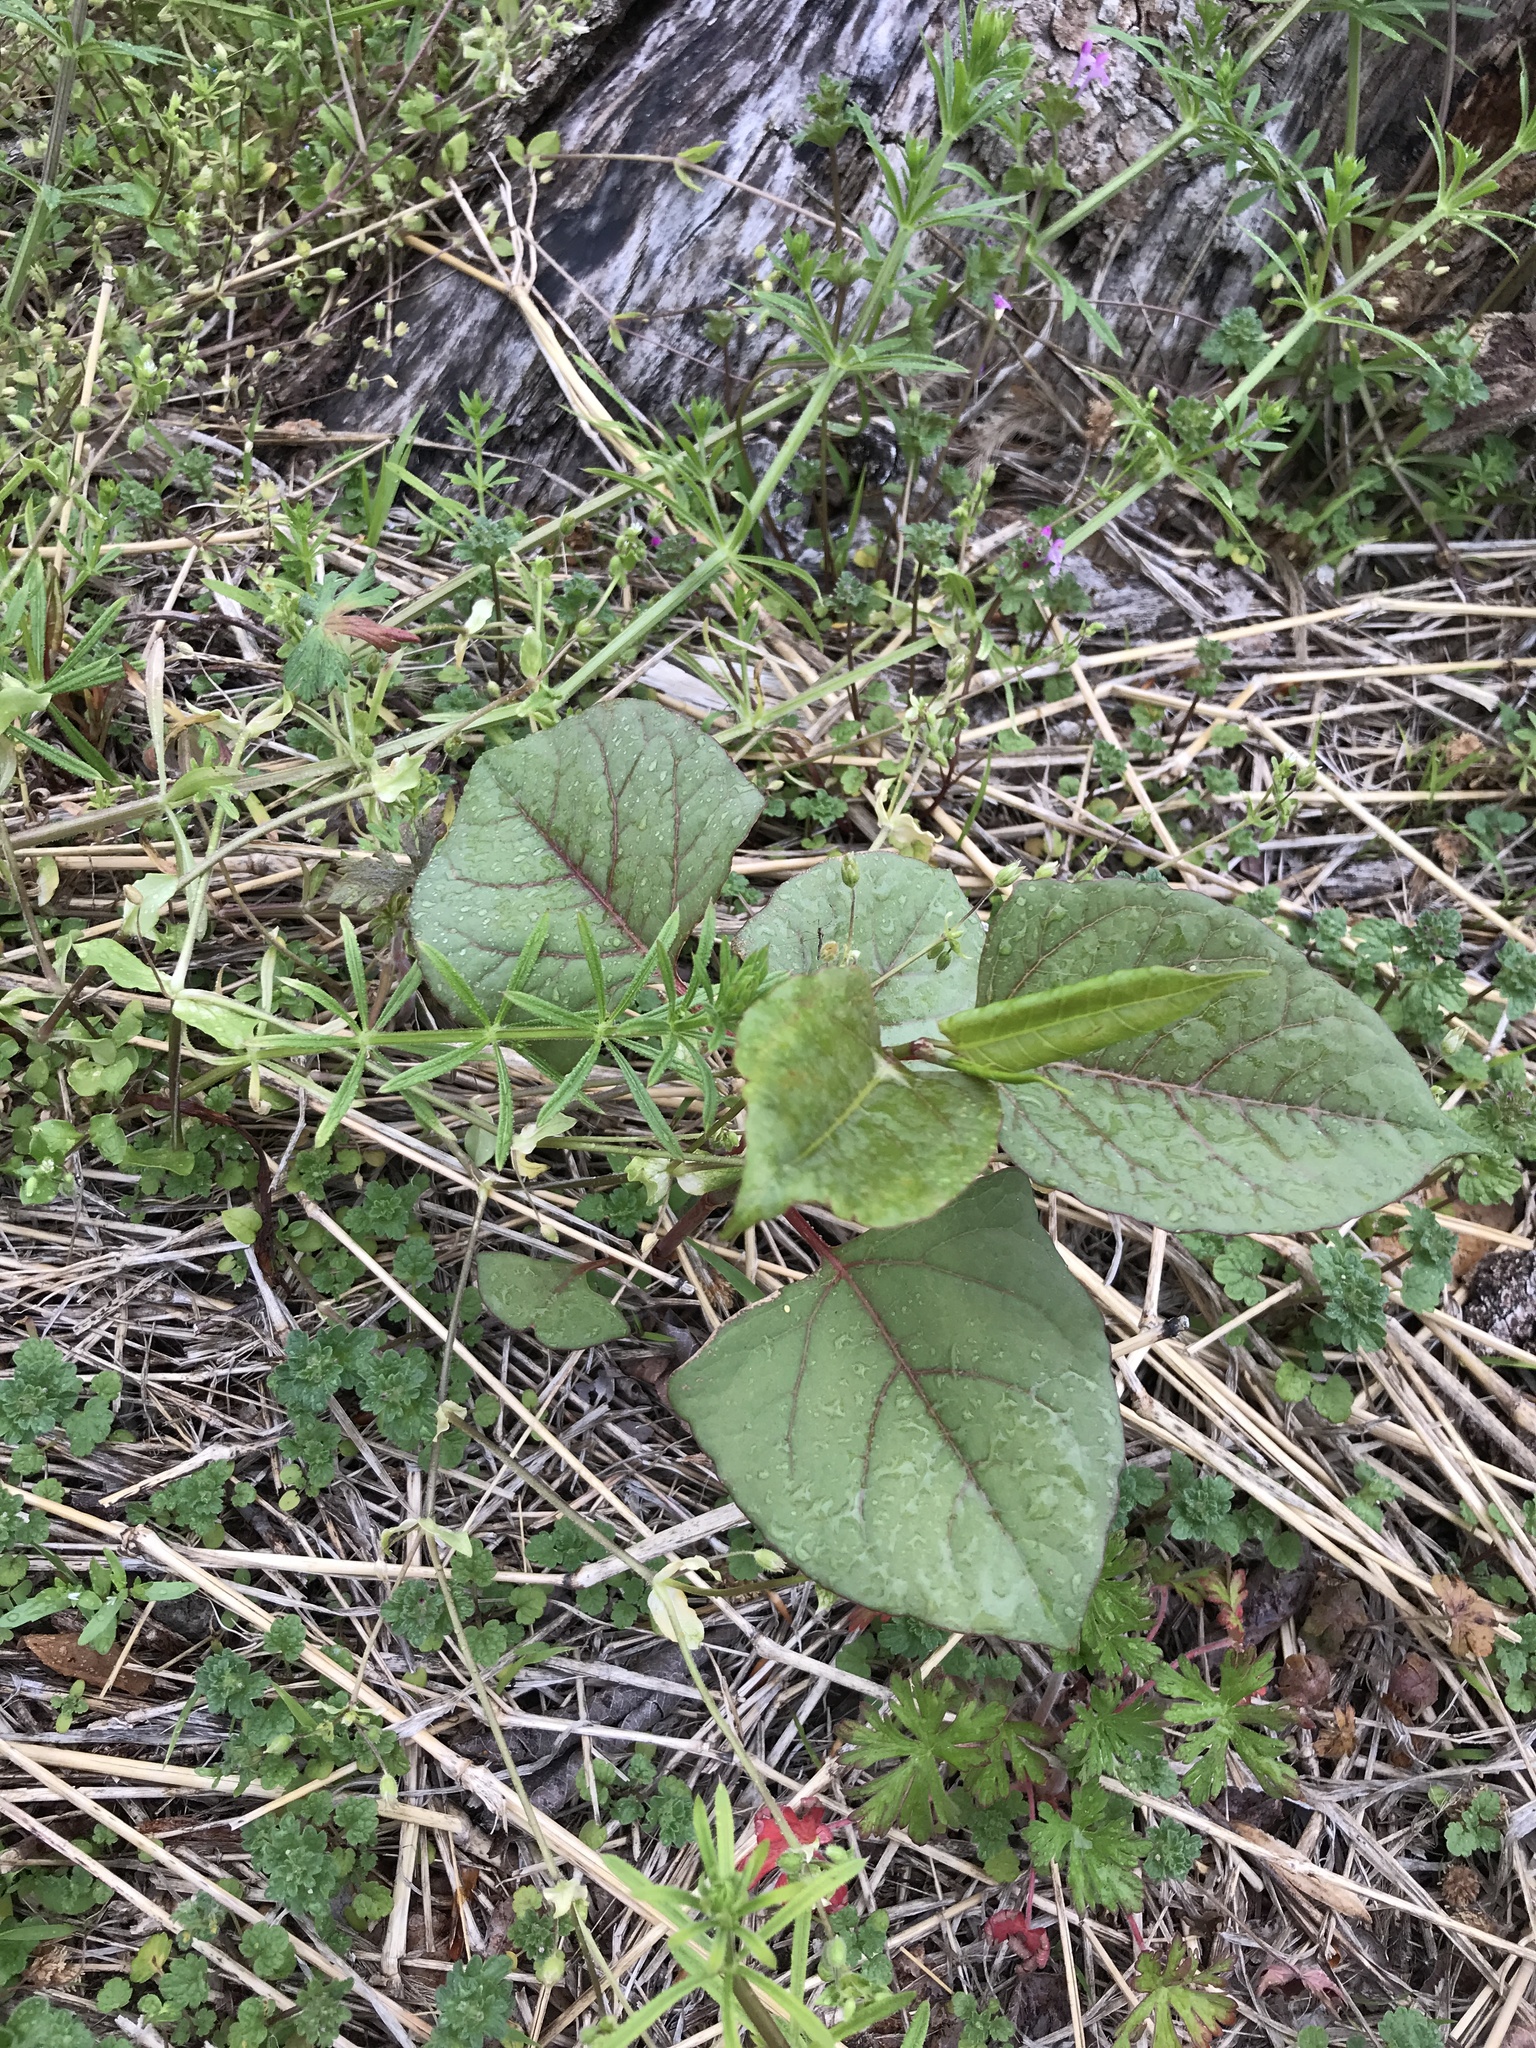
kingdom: Plantae
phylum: Tracheophyta
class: Magnoliopsida
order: Caryophyllales
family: Polygonaceae
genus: Reynoutria
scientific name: Reynoutria japonica
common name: Japanese knotweed
